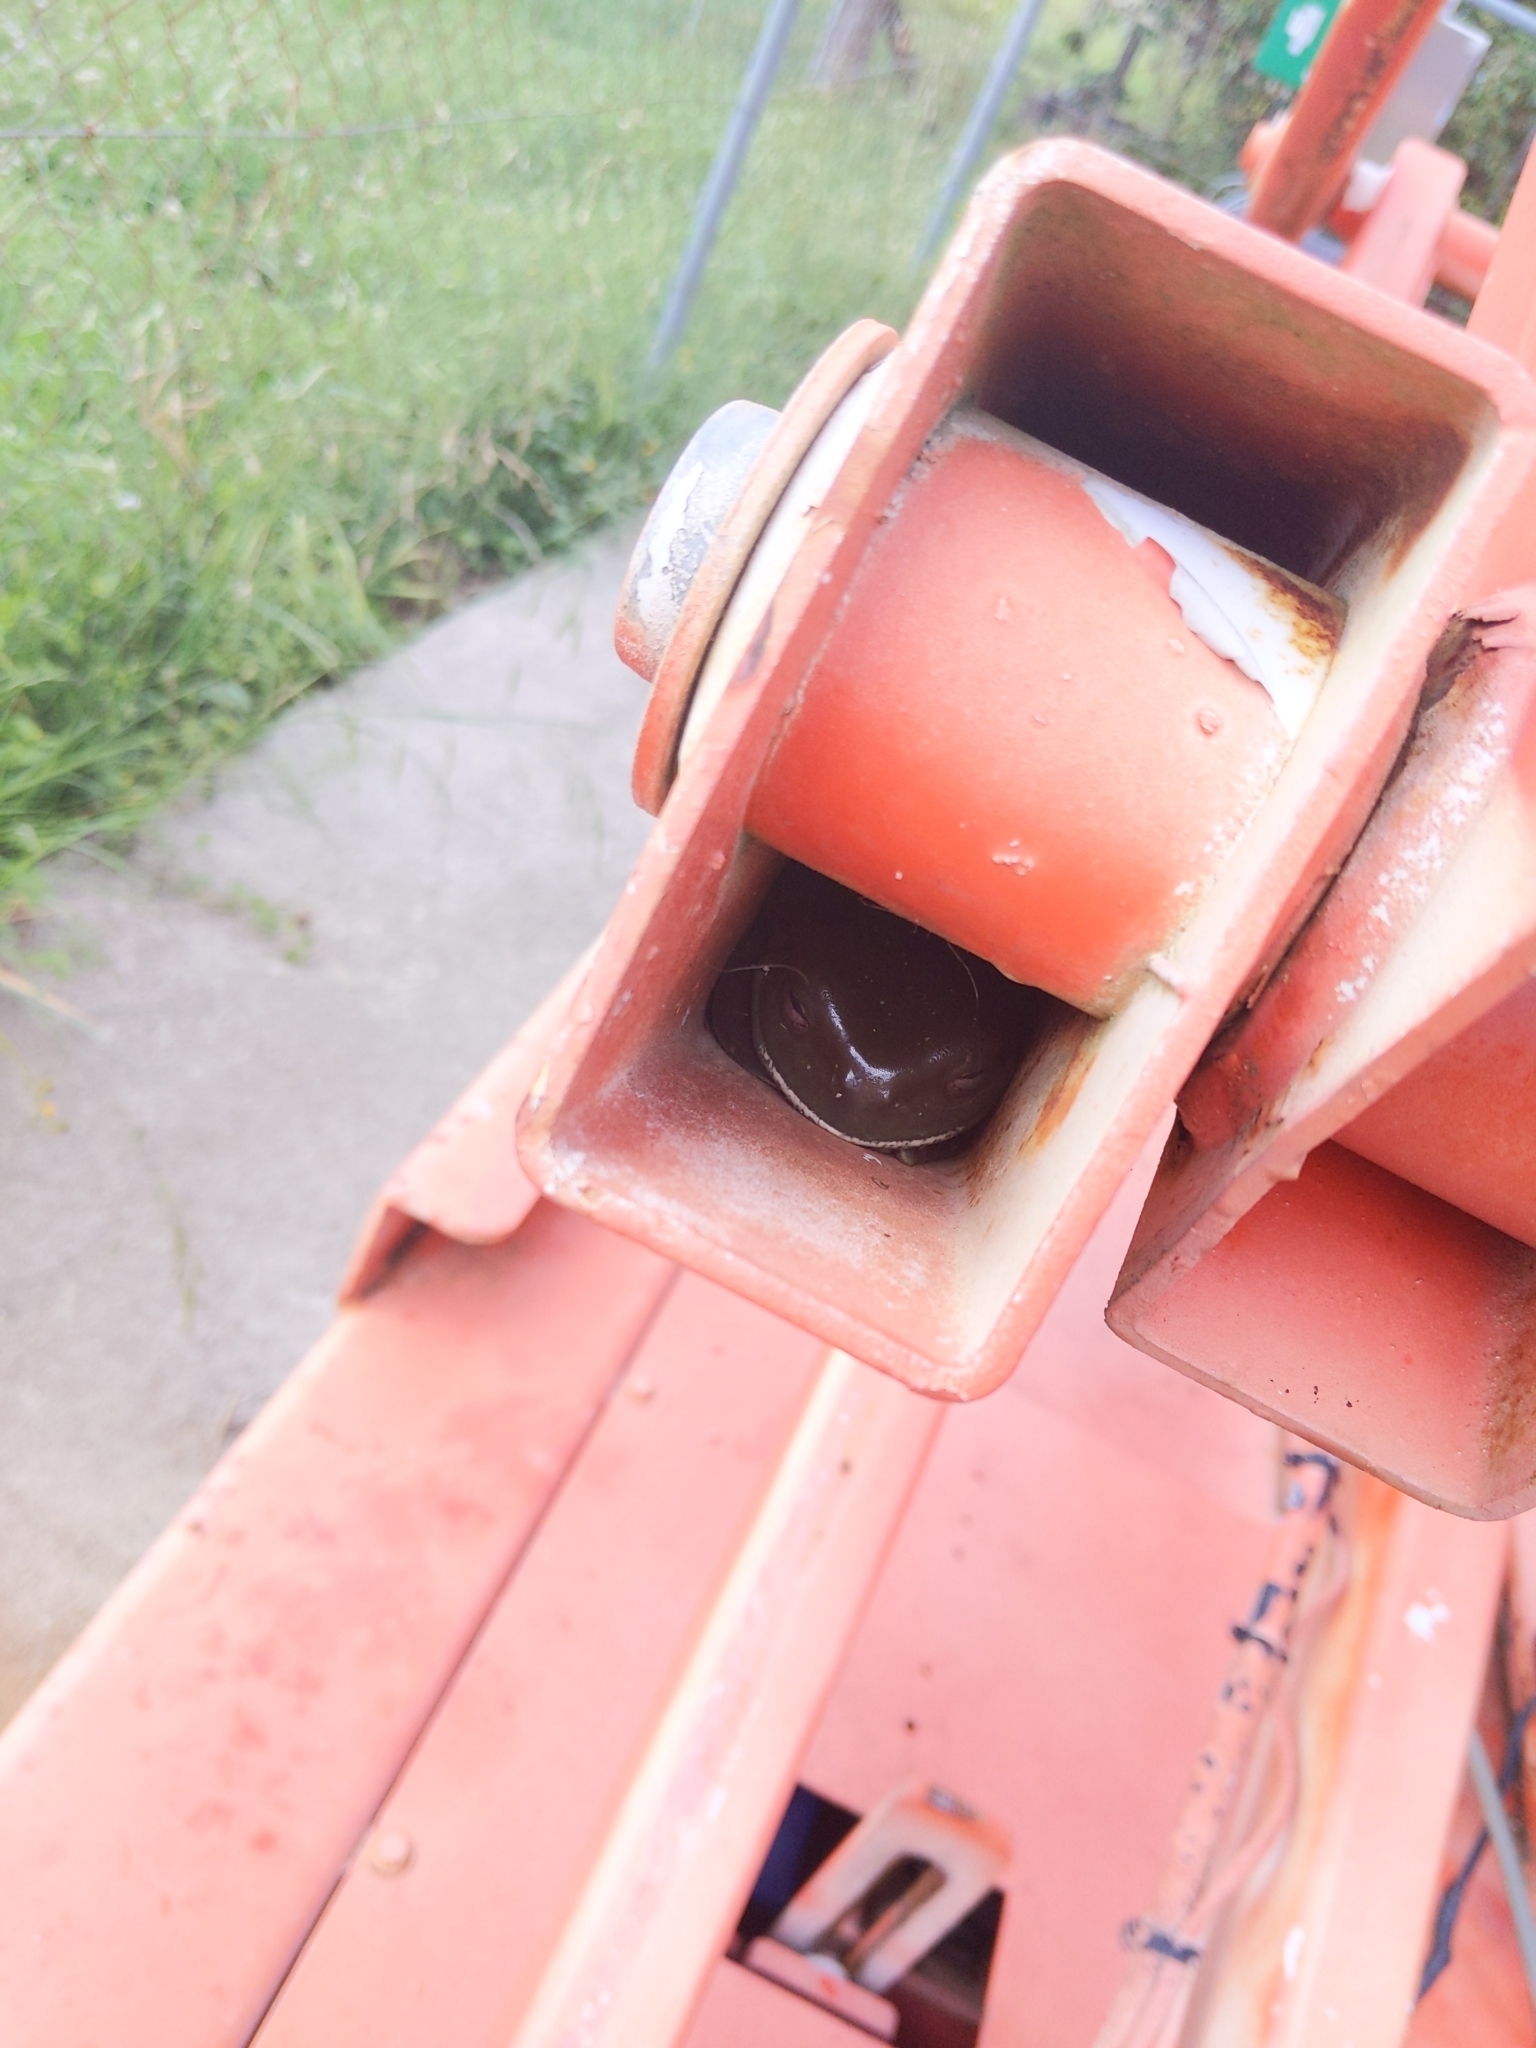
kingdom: Animalia
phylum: Chordata
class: Amphibia
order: Anura
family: Pelodryadidae
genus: Ranoidea
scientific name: Ranoidea caerulea
